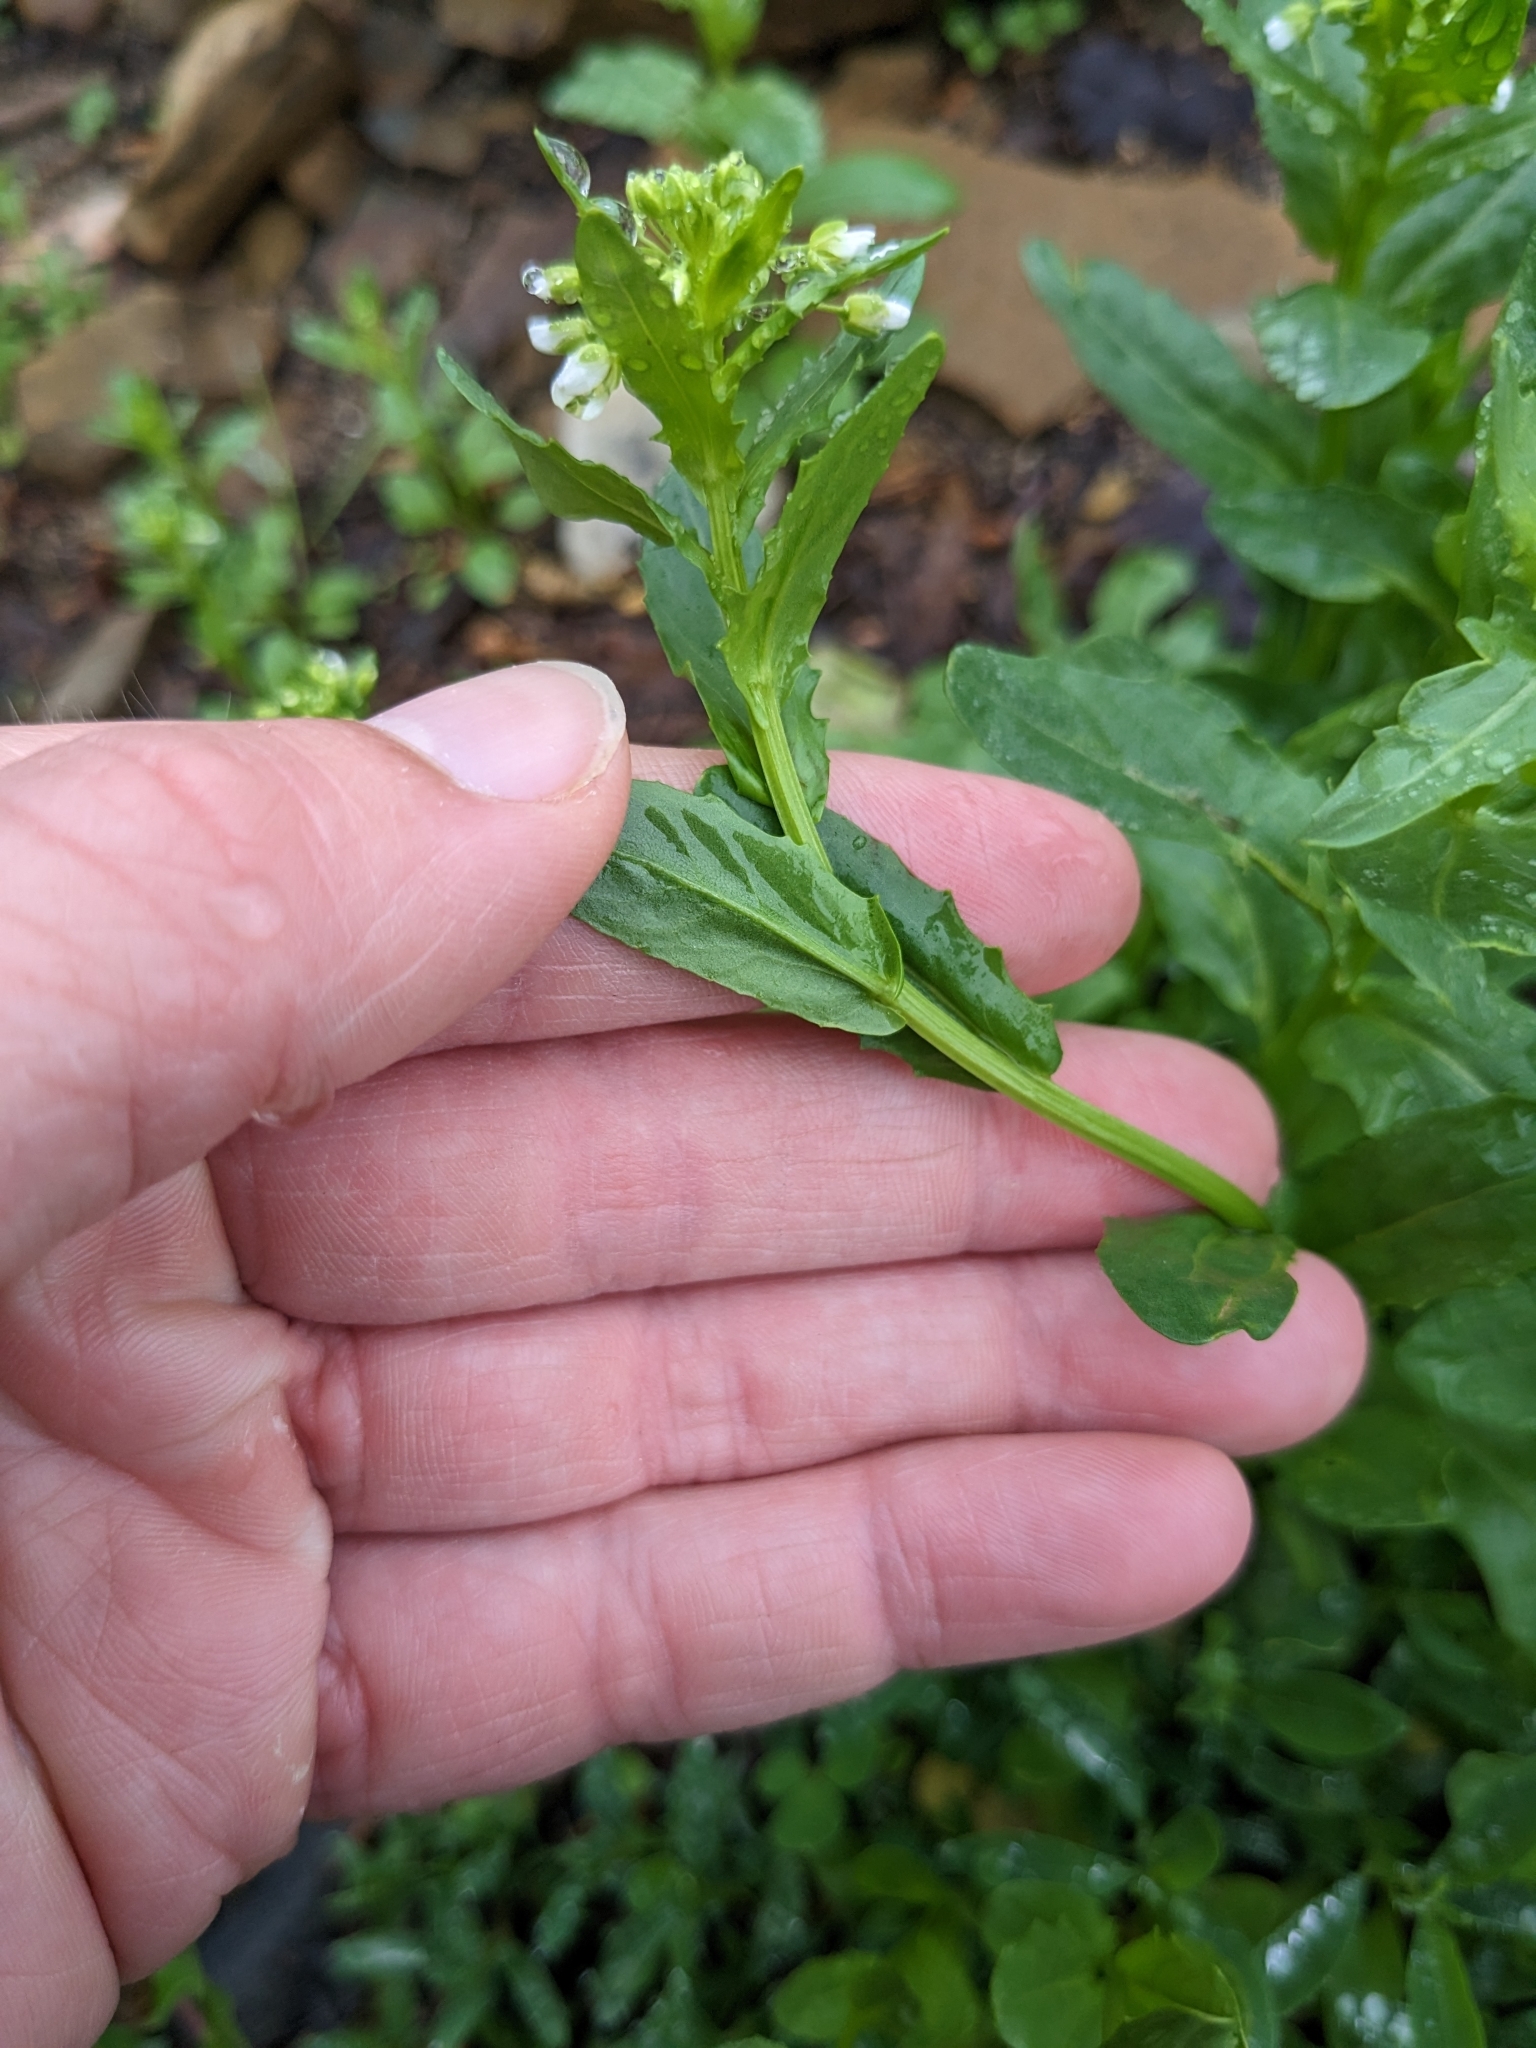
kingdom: Plantae
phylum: Tracheophyta
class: Magnoliopsida
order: Brassicales
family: Brassicaceae
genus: Thlaspi
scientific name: Thlaspi arvense
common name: Field pennycress
